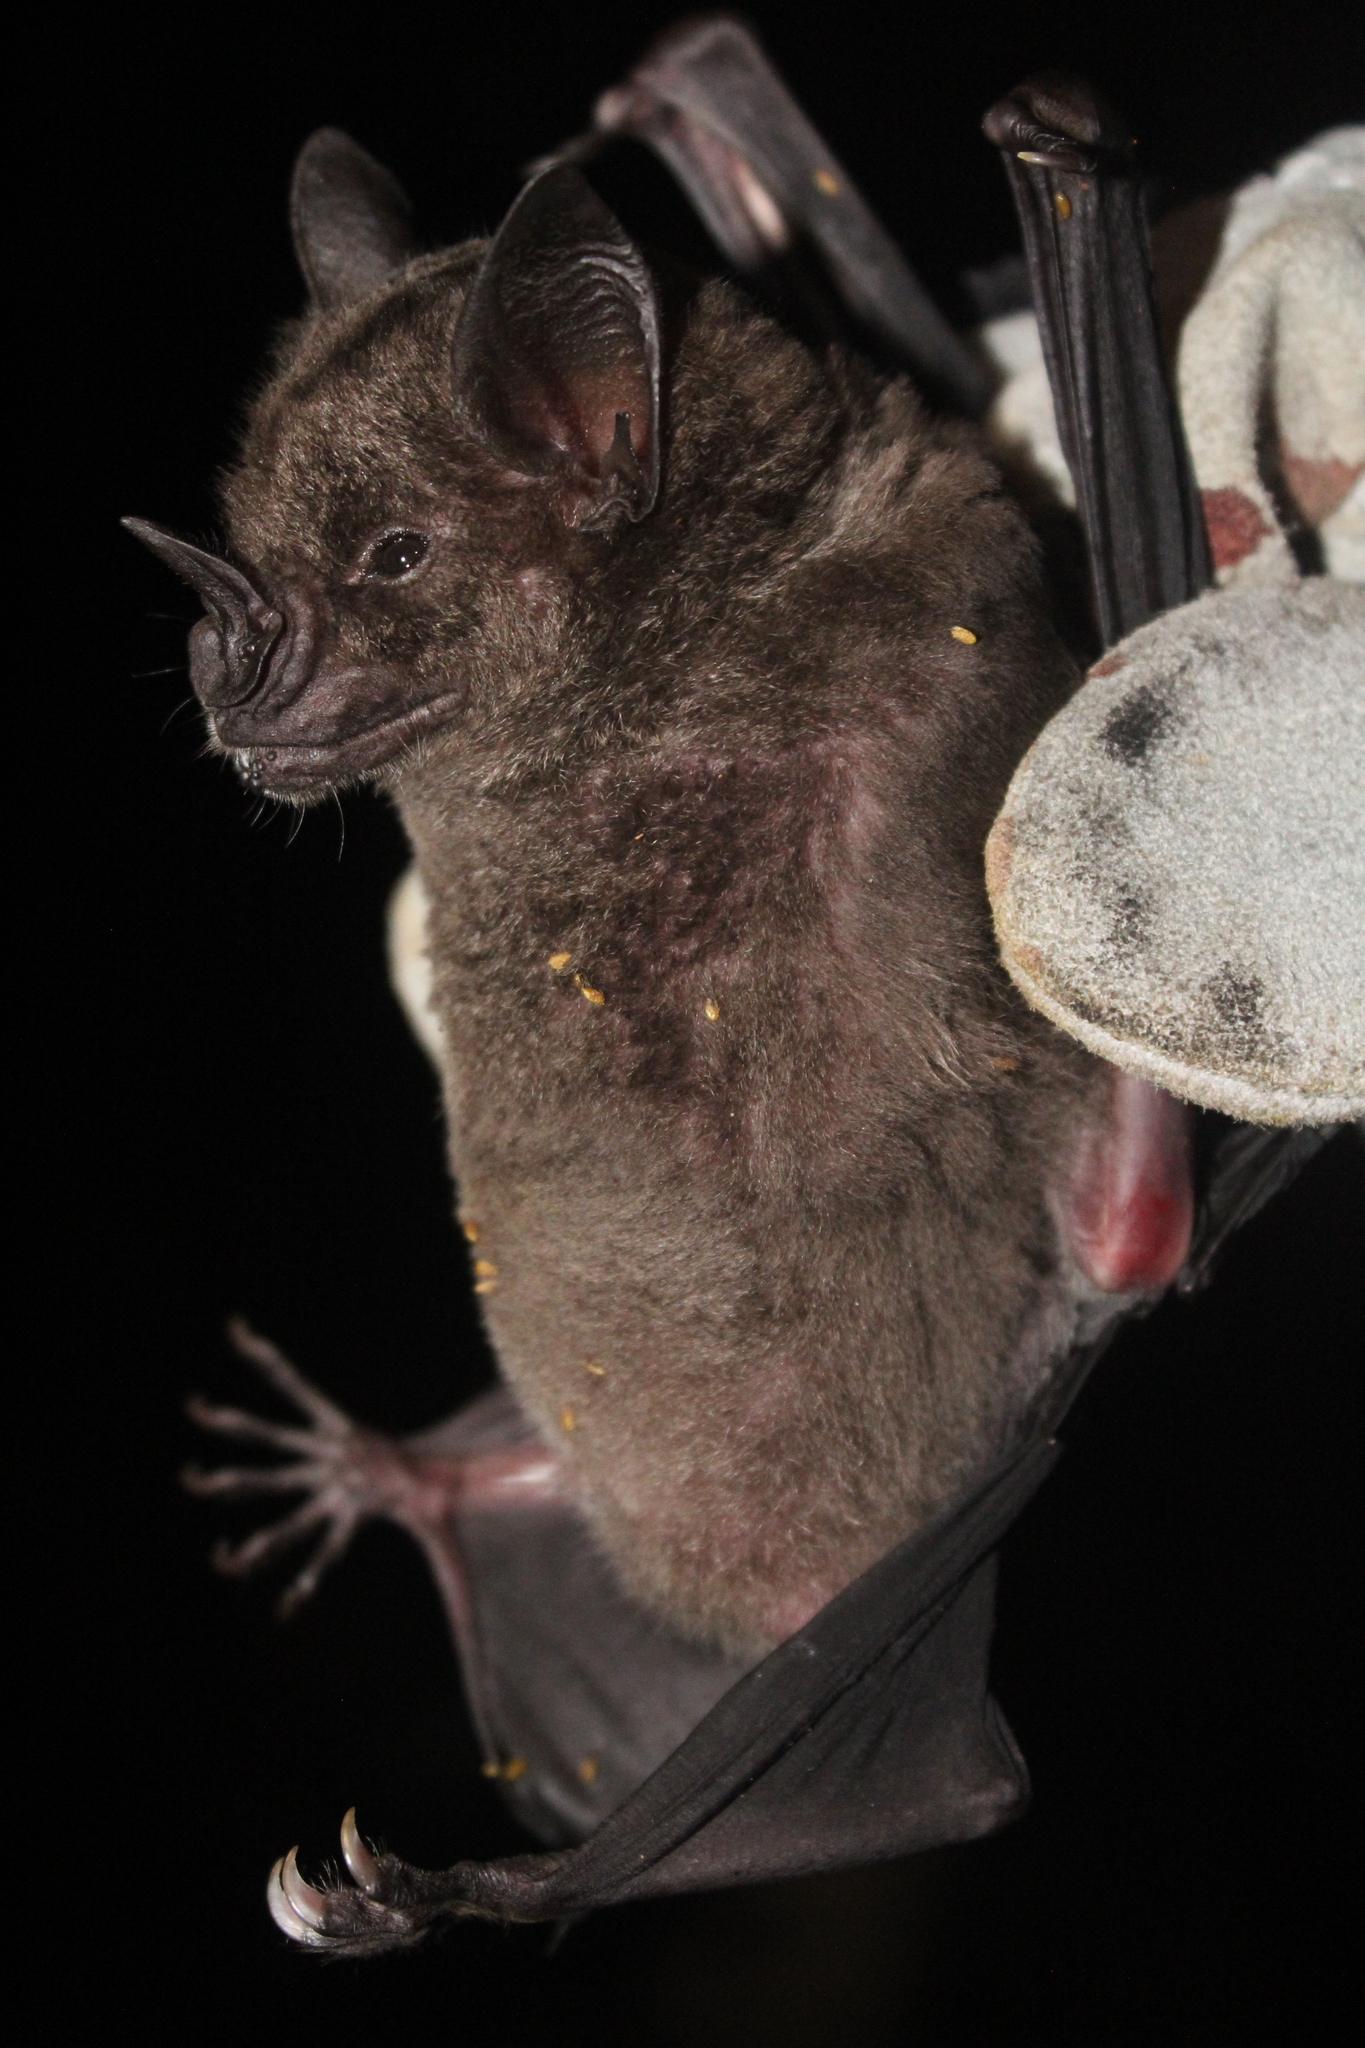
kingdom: Animalia
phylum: Chordata
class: Mammalia
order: Chiroptera
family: Phyllostomidae
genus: Phyllostomus
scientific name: Phyllostomus hastatus
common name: Greater spear-nosed bat
